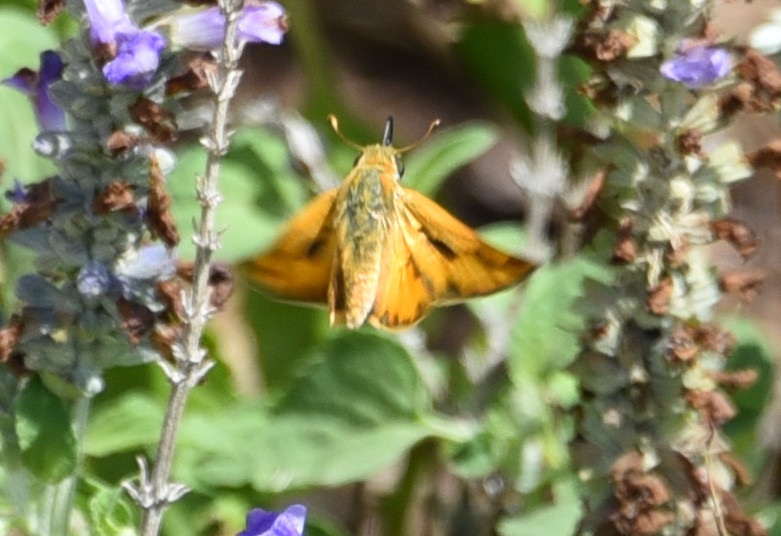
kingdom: Animalia
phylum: Arthropoda
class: Insecta
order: Lepidoptera
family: Hesperiidae
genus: Hylephila
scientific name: Hylephila phyleus
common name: Fiery skipper
